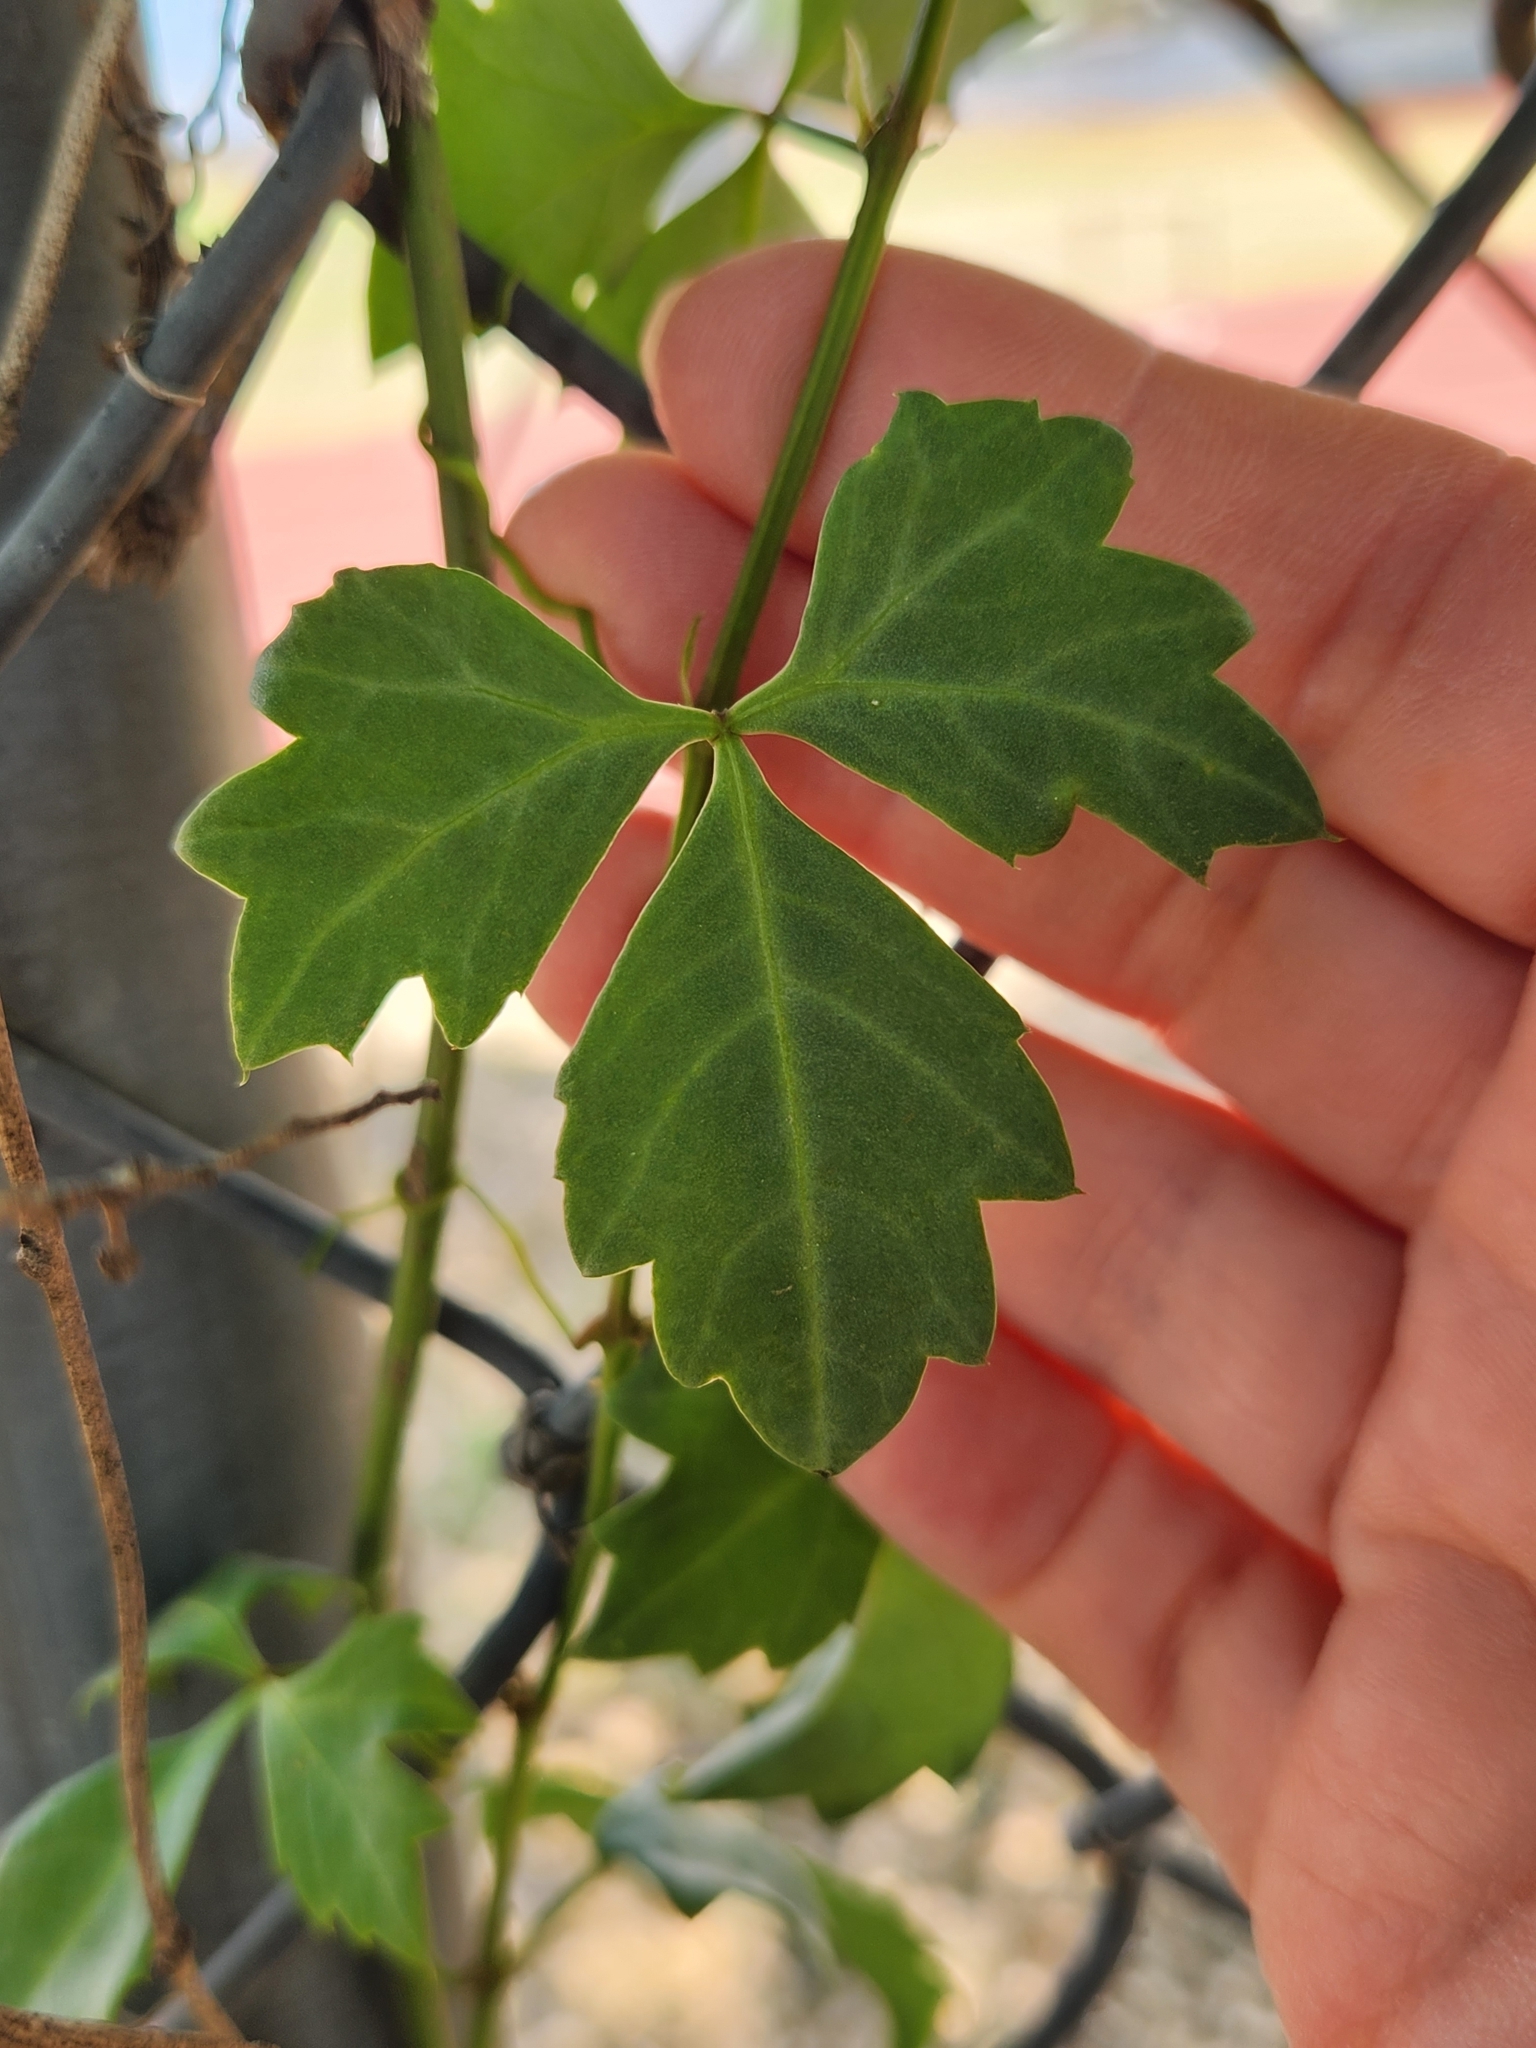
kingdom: Plantae
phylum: Tracheophyta
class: Magnoliopsida
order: Vitales
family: Vitaceae
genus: Cissus
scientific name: Cissus trifoliata
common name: Vine-sorrel
